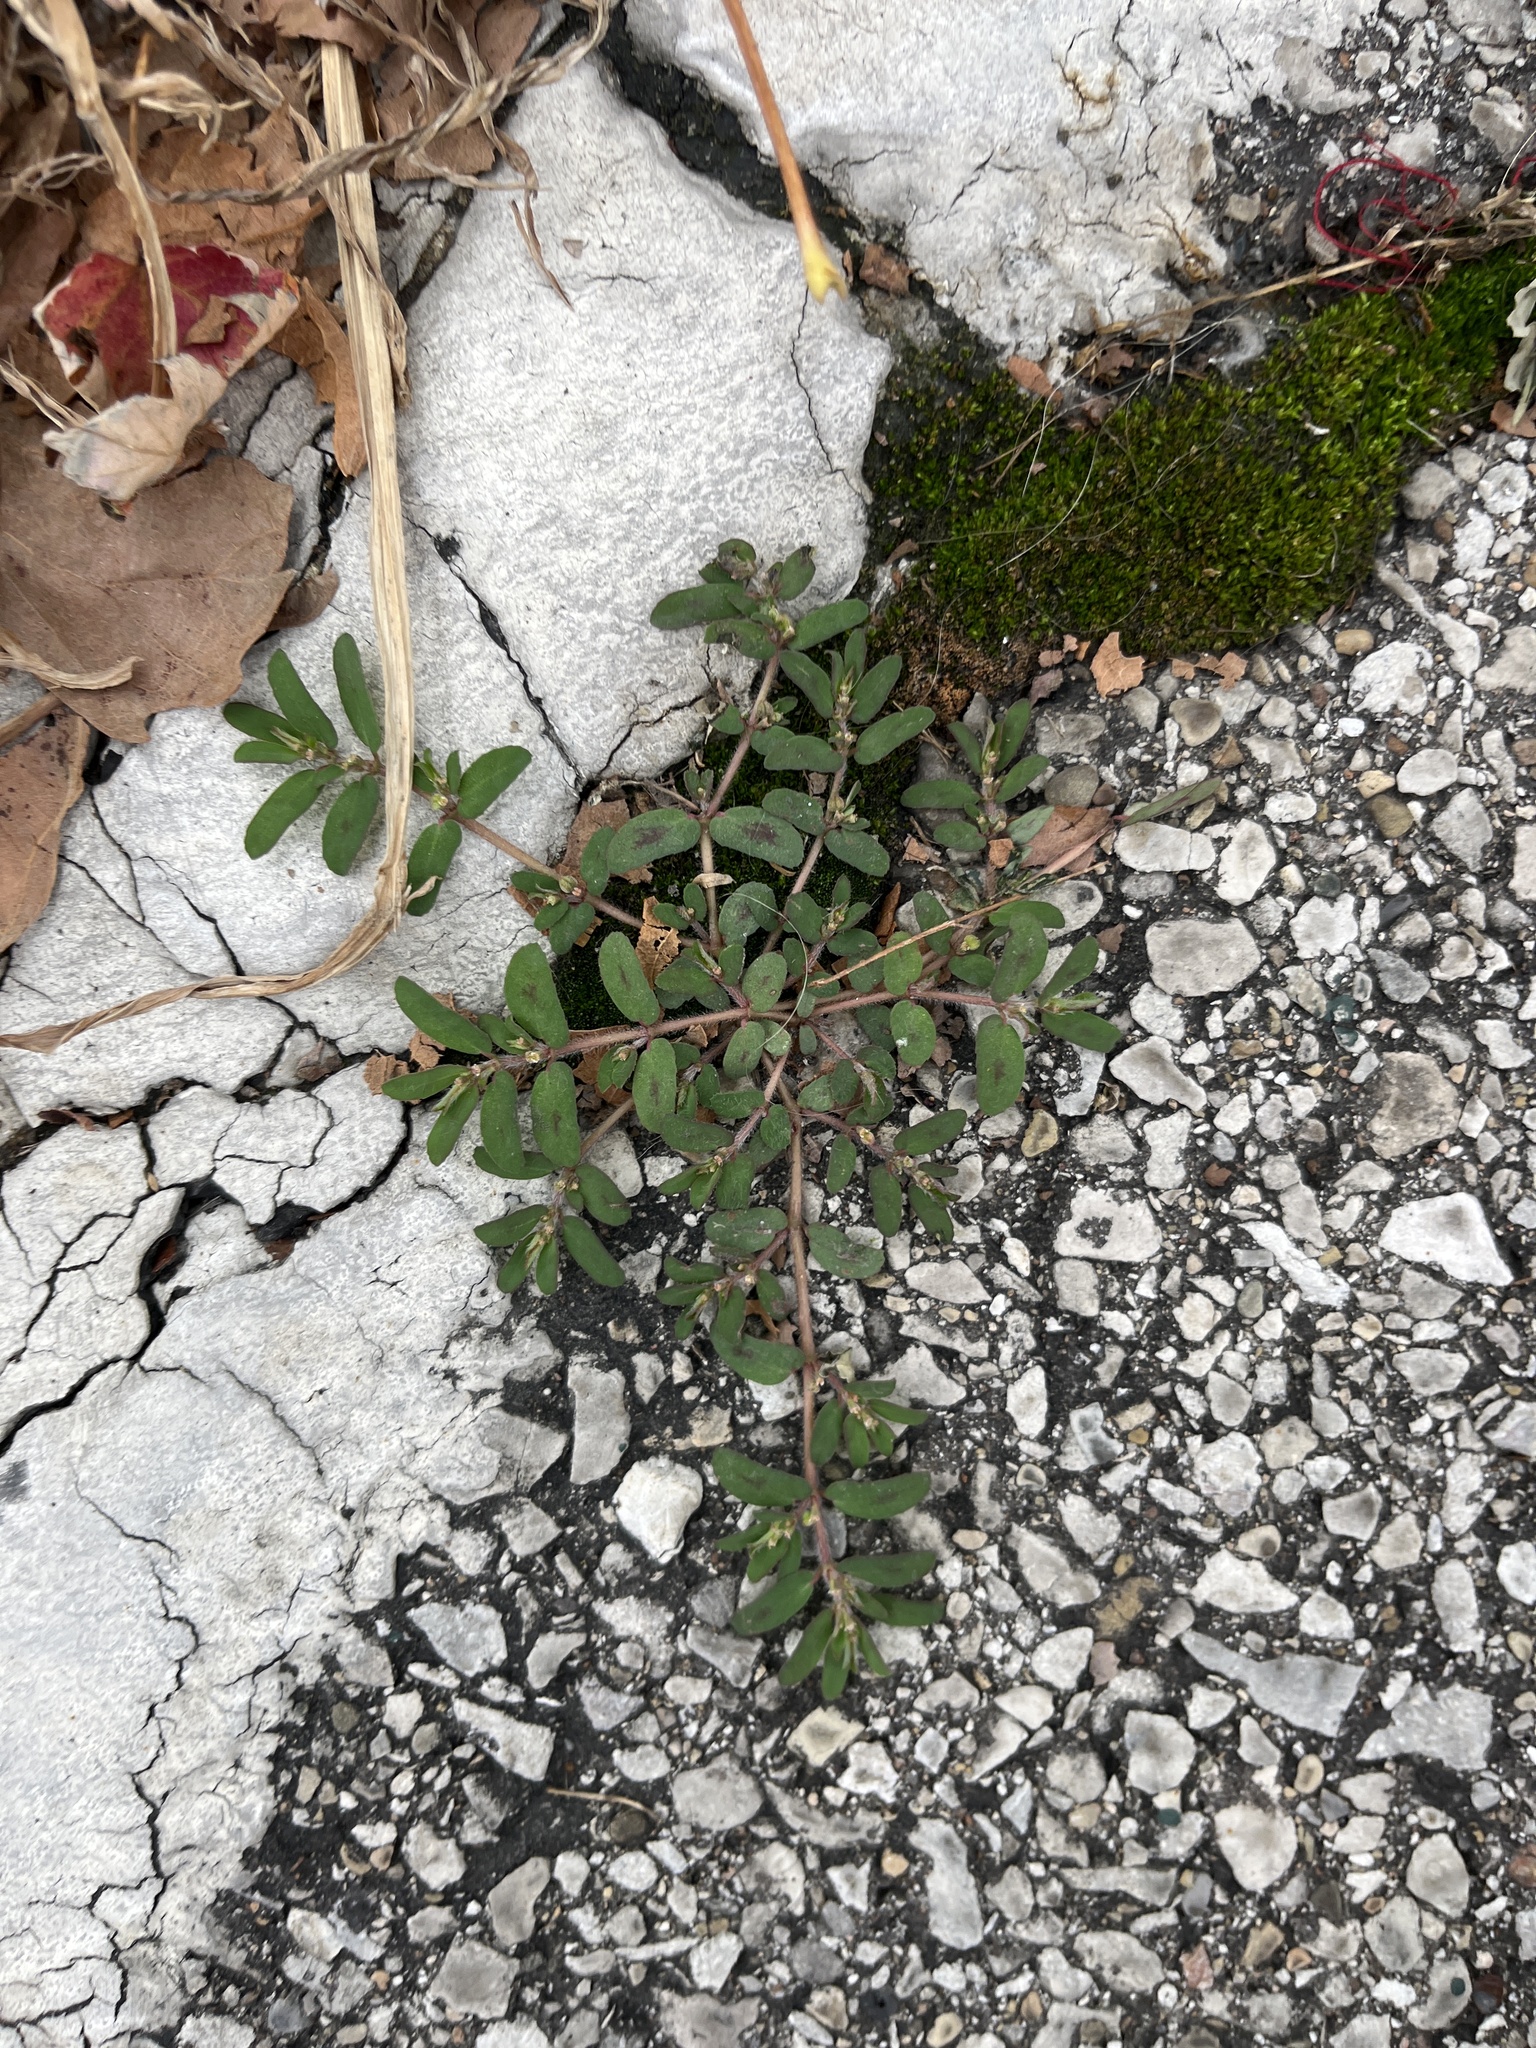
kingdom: Plantae
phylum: Tracheophyta
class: Magnoliopsida
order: Malpighiales
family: Euphorbiaceae
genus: Euphorbia
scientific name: Euphorbia maculata
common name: Spotted spurge
